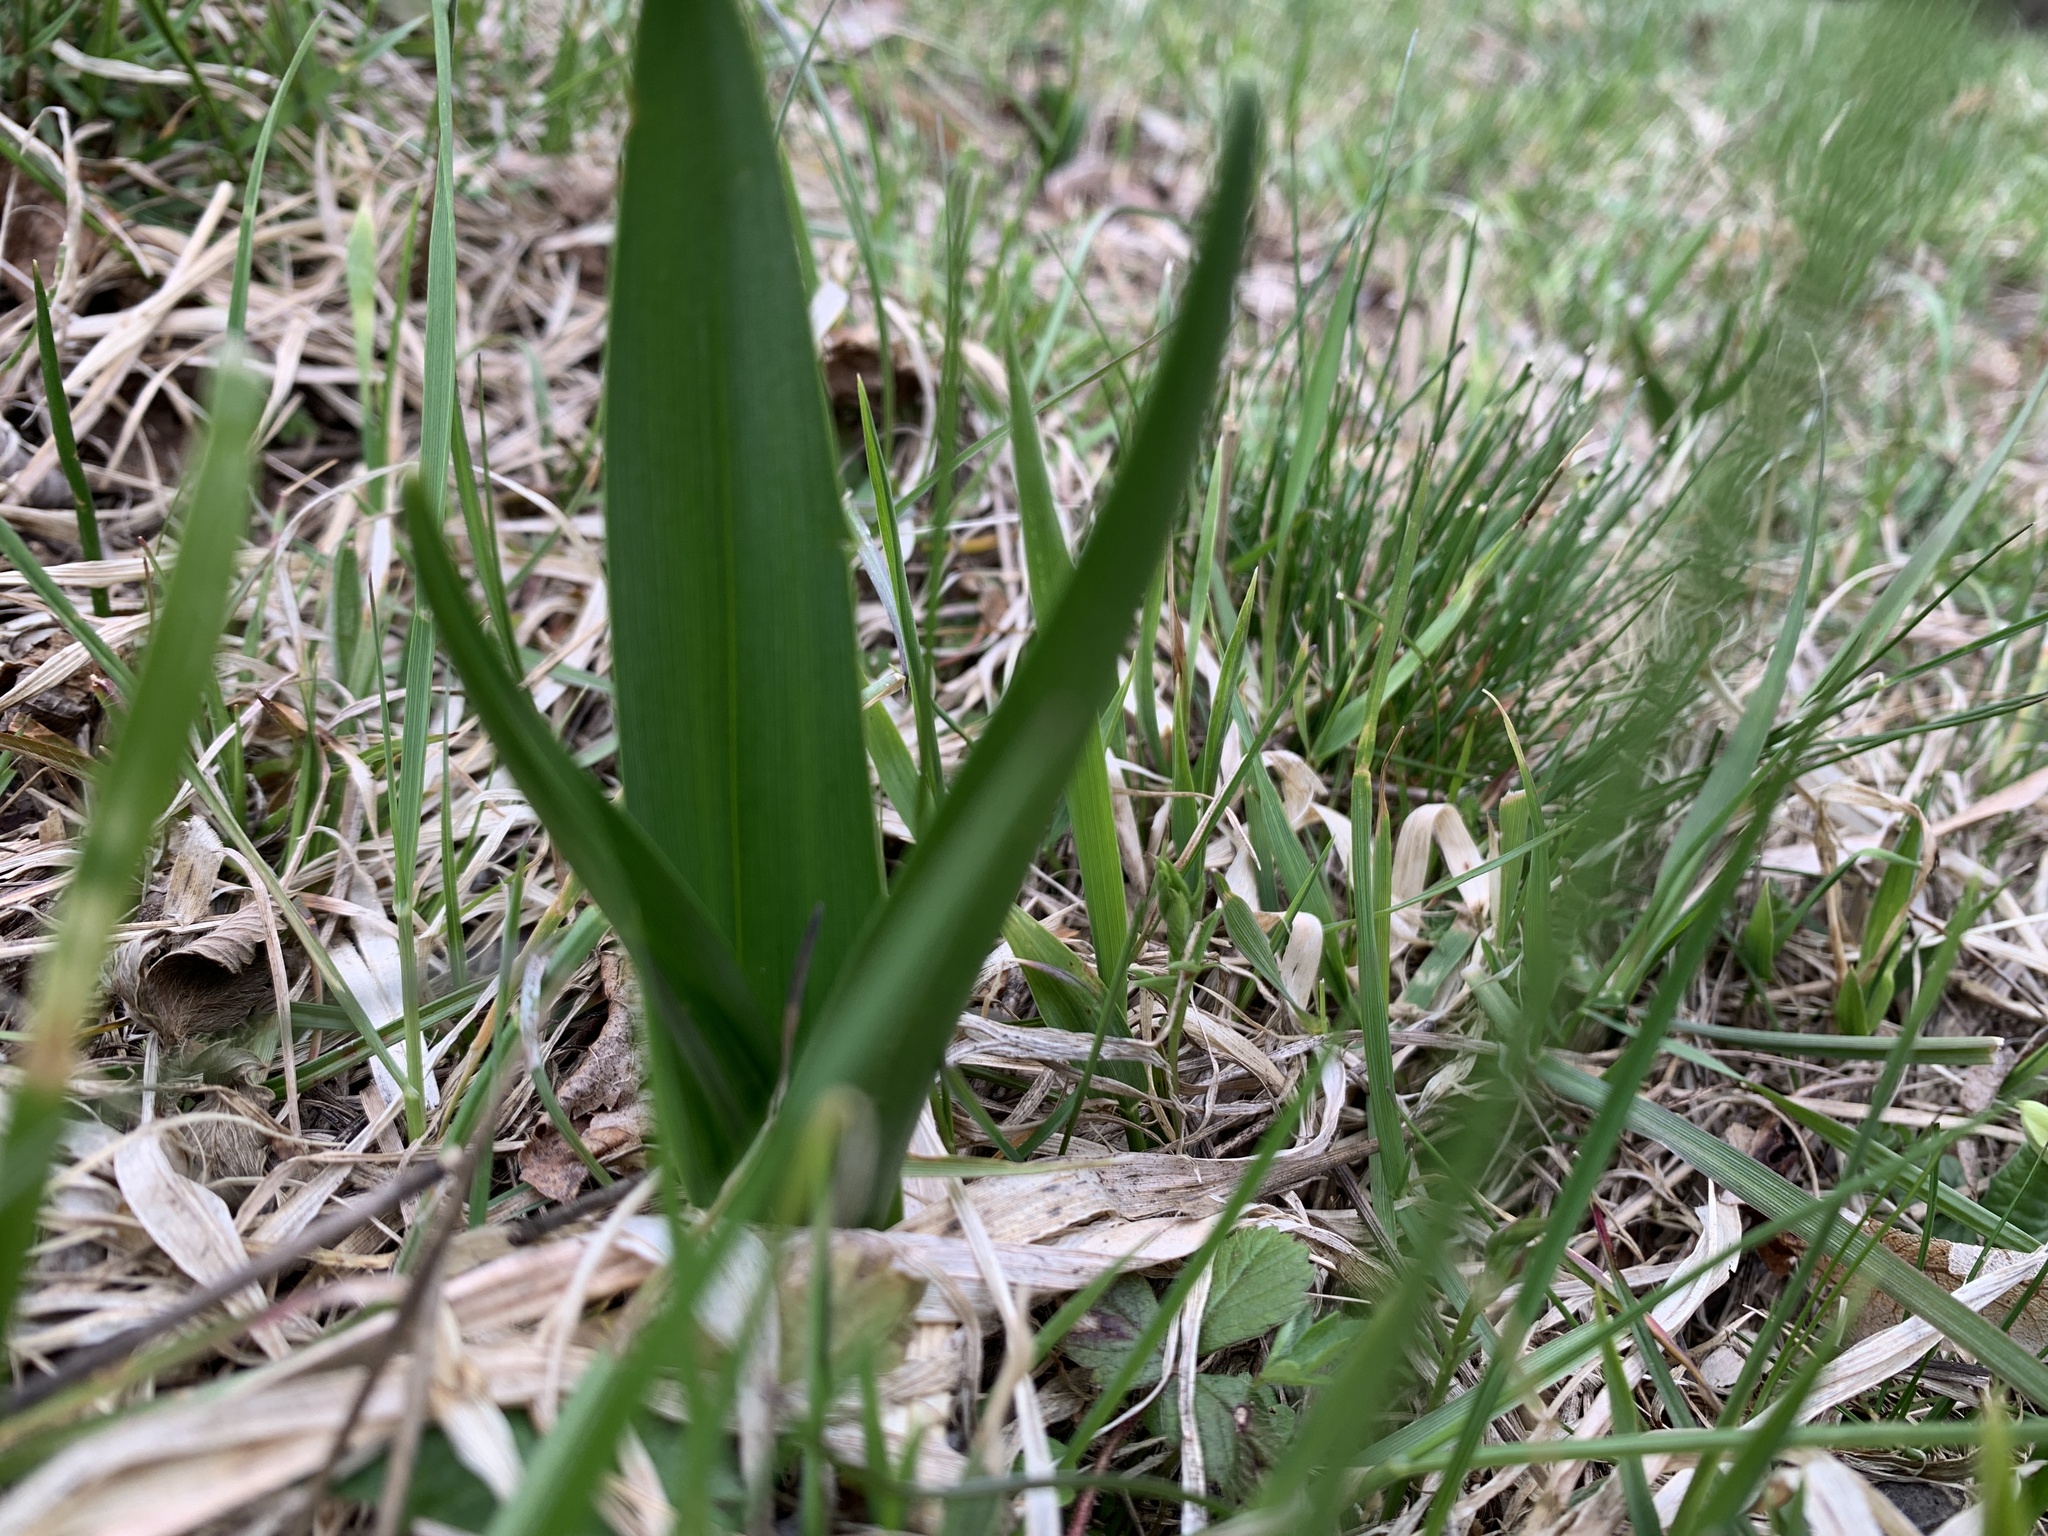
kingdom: Plantae
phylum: Tracheophyta
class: Liliopsida
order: Liliales
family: Colchicaceae
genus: Colchicum
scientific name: Colchicum autumnale
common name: Autumn crocus
